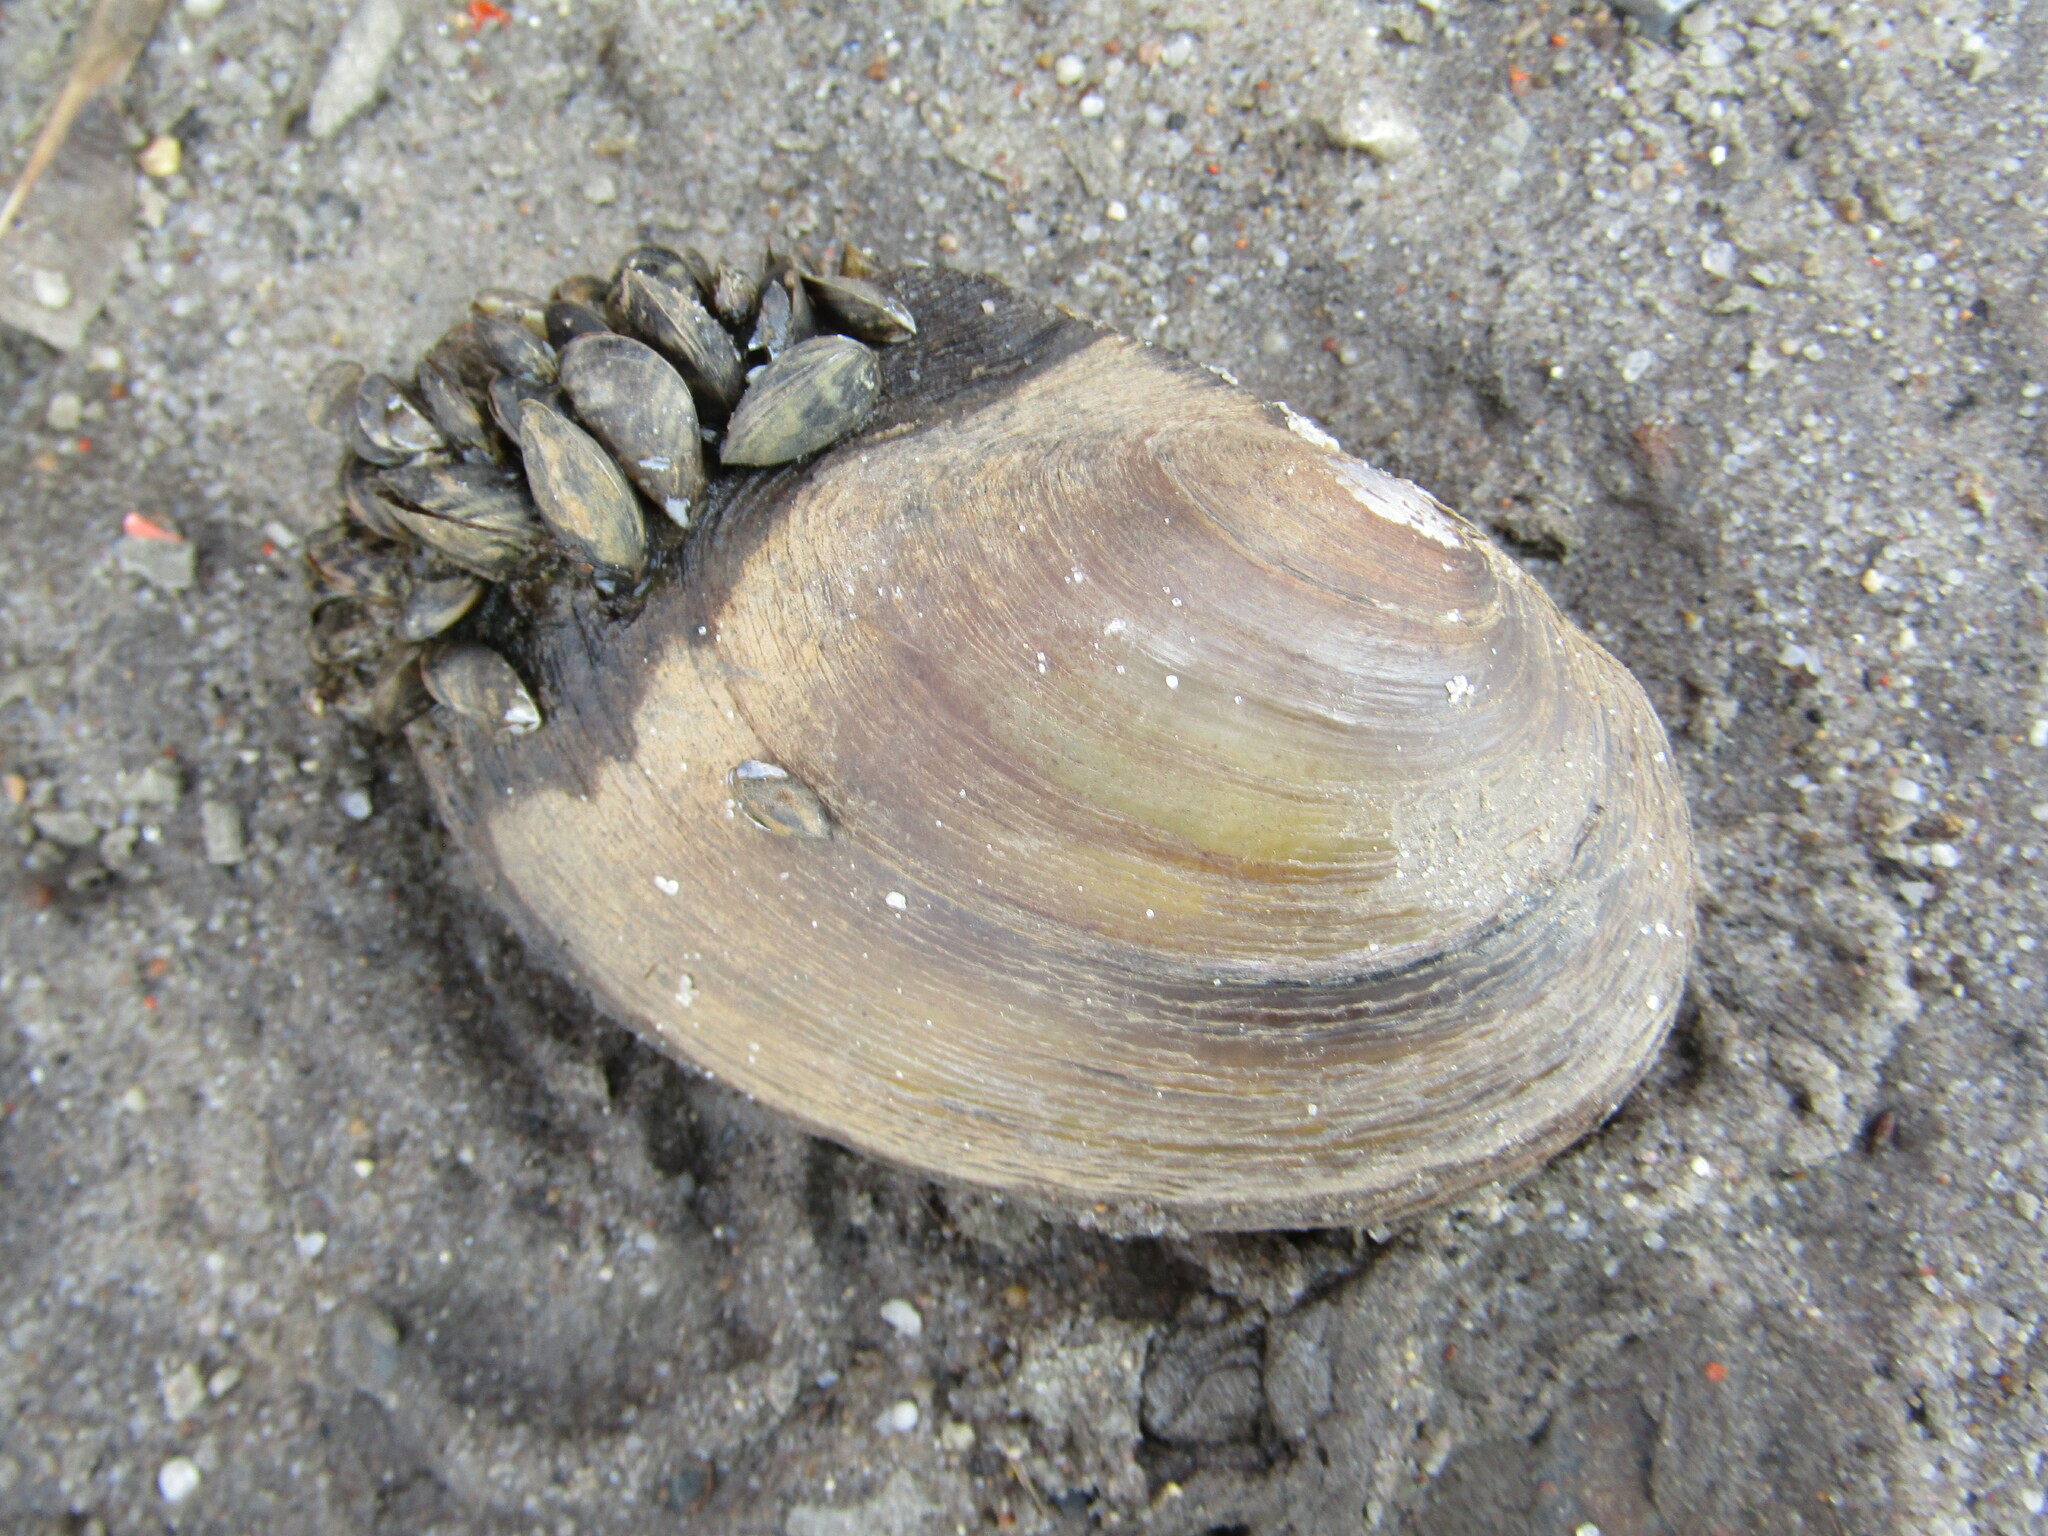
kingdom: Animalia
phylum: Mollusca
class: Bivalvia
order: Unionida
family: Unionidae
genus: Anodonta
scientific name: Anodonta anatina
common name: Duck mussel
